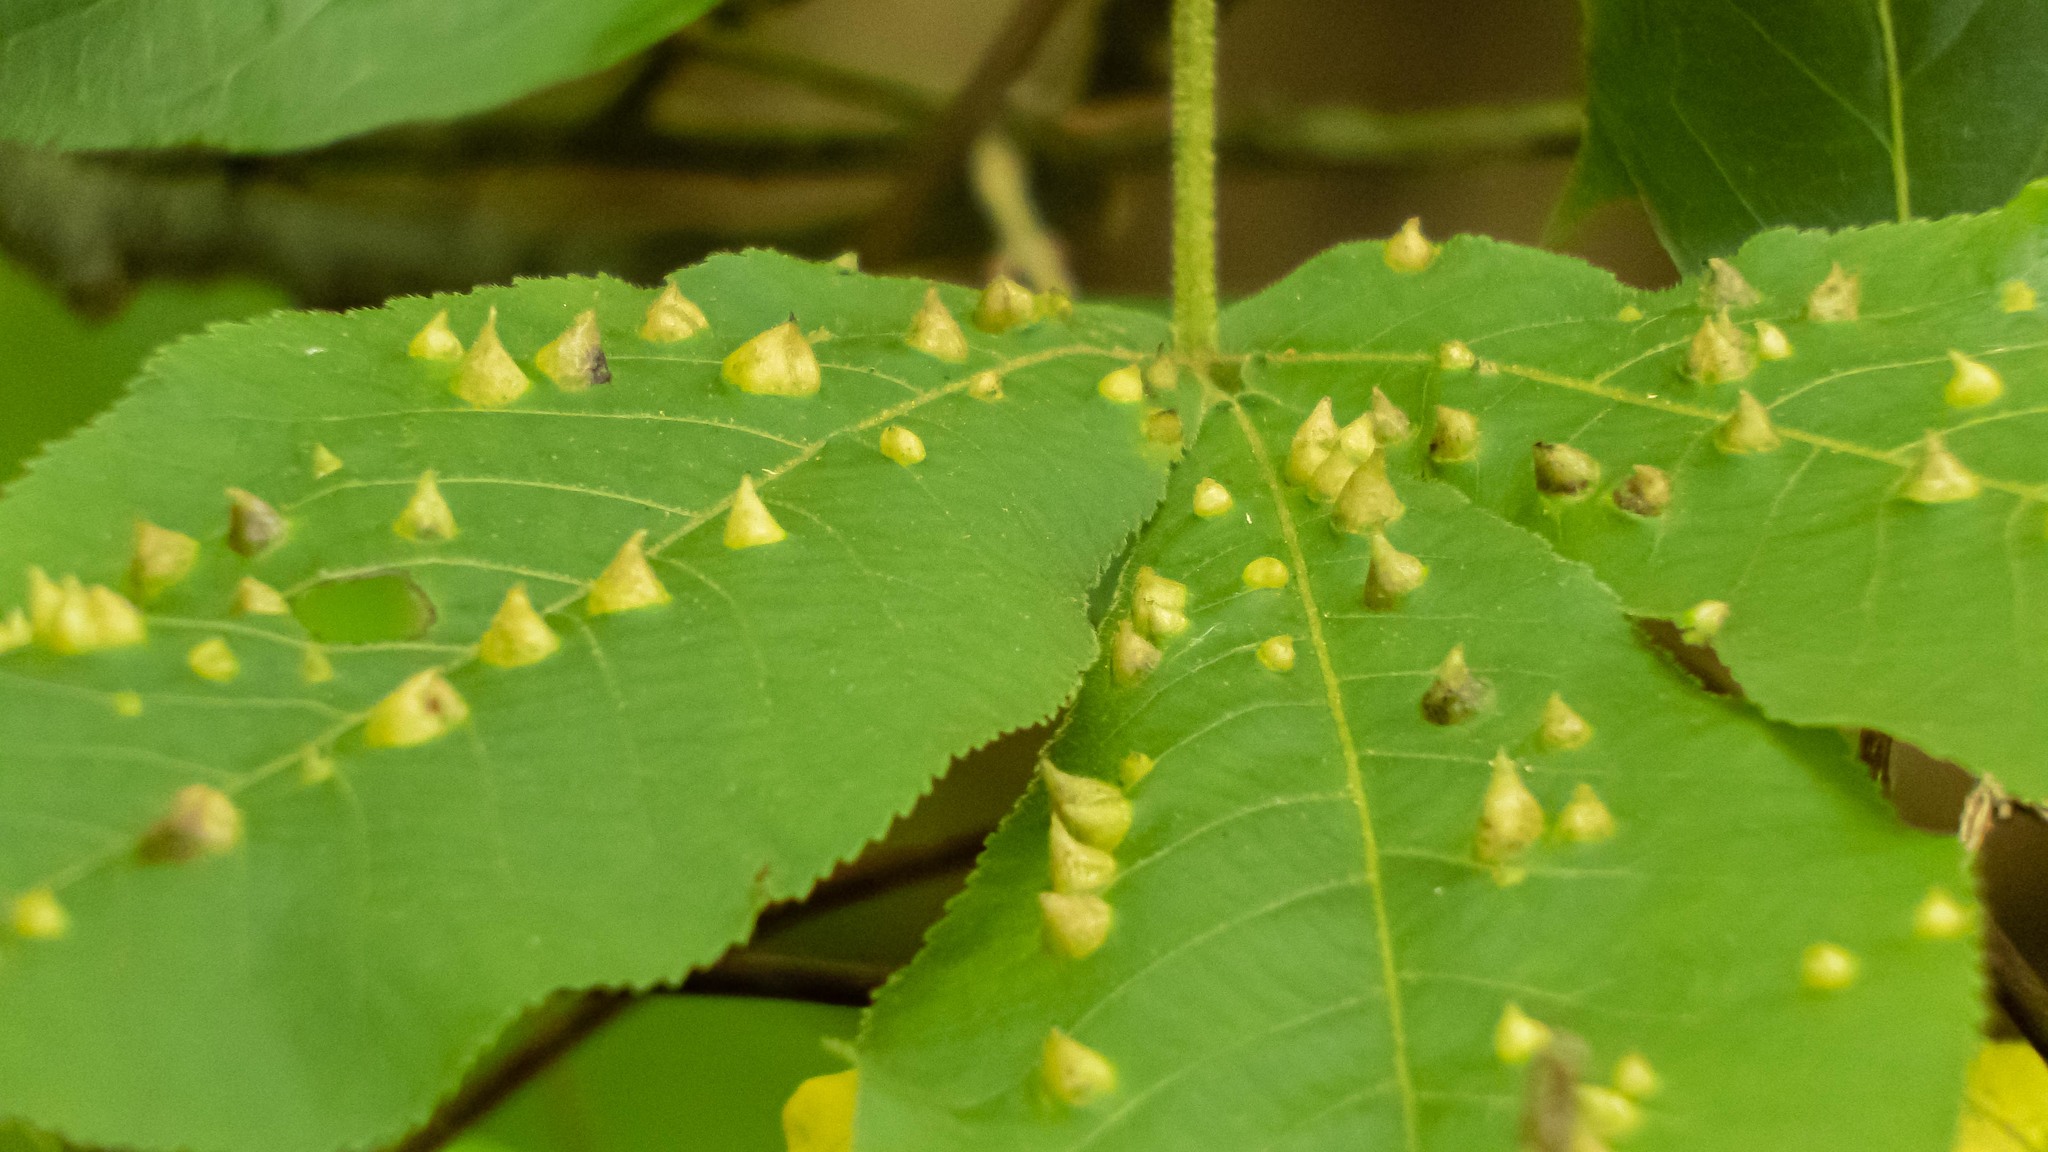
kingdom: Animalia
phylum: Arthropoda
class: Insecta
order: Hemiptera
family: Phylloxeridae
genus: Phylloxera
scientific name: Phylloxera caryaefallax
